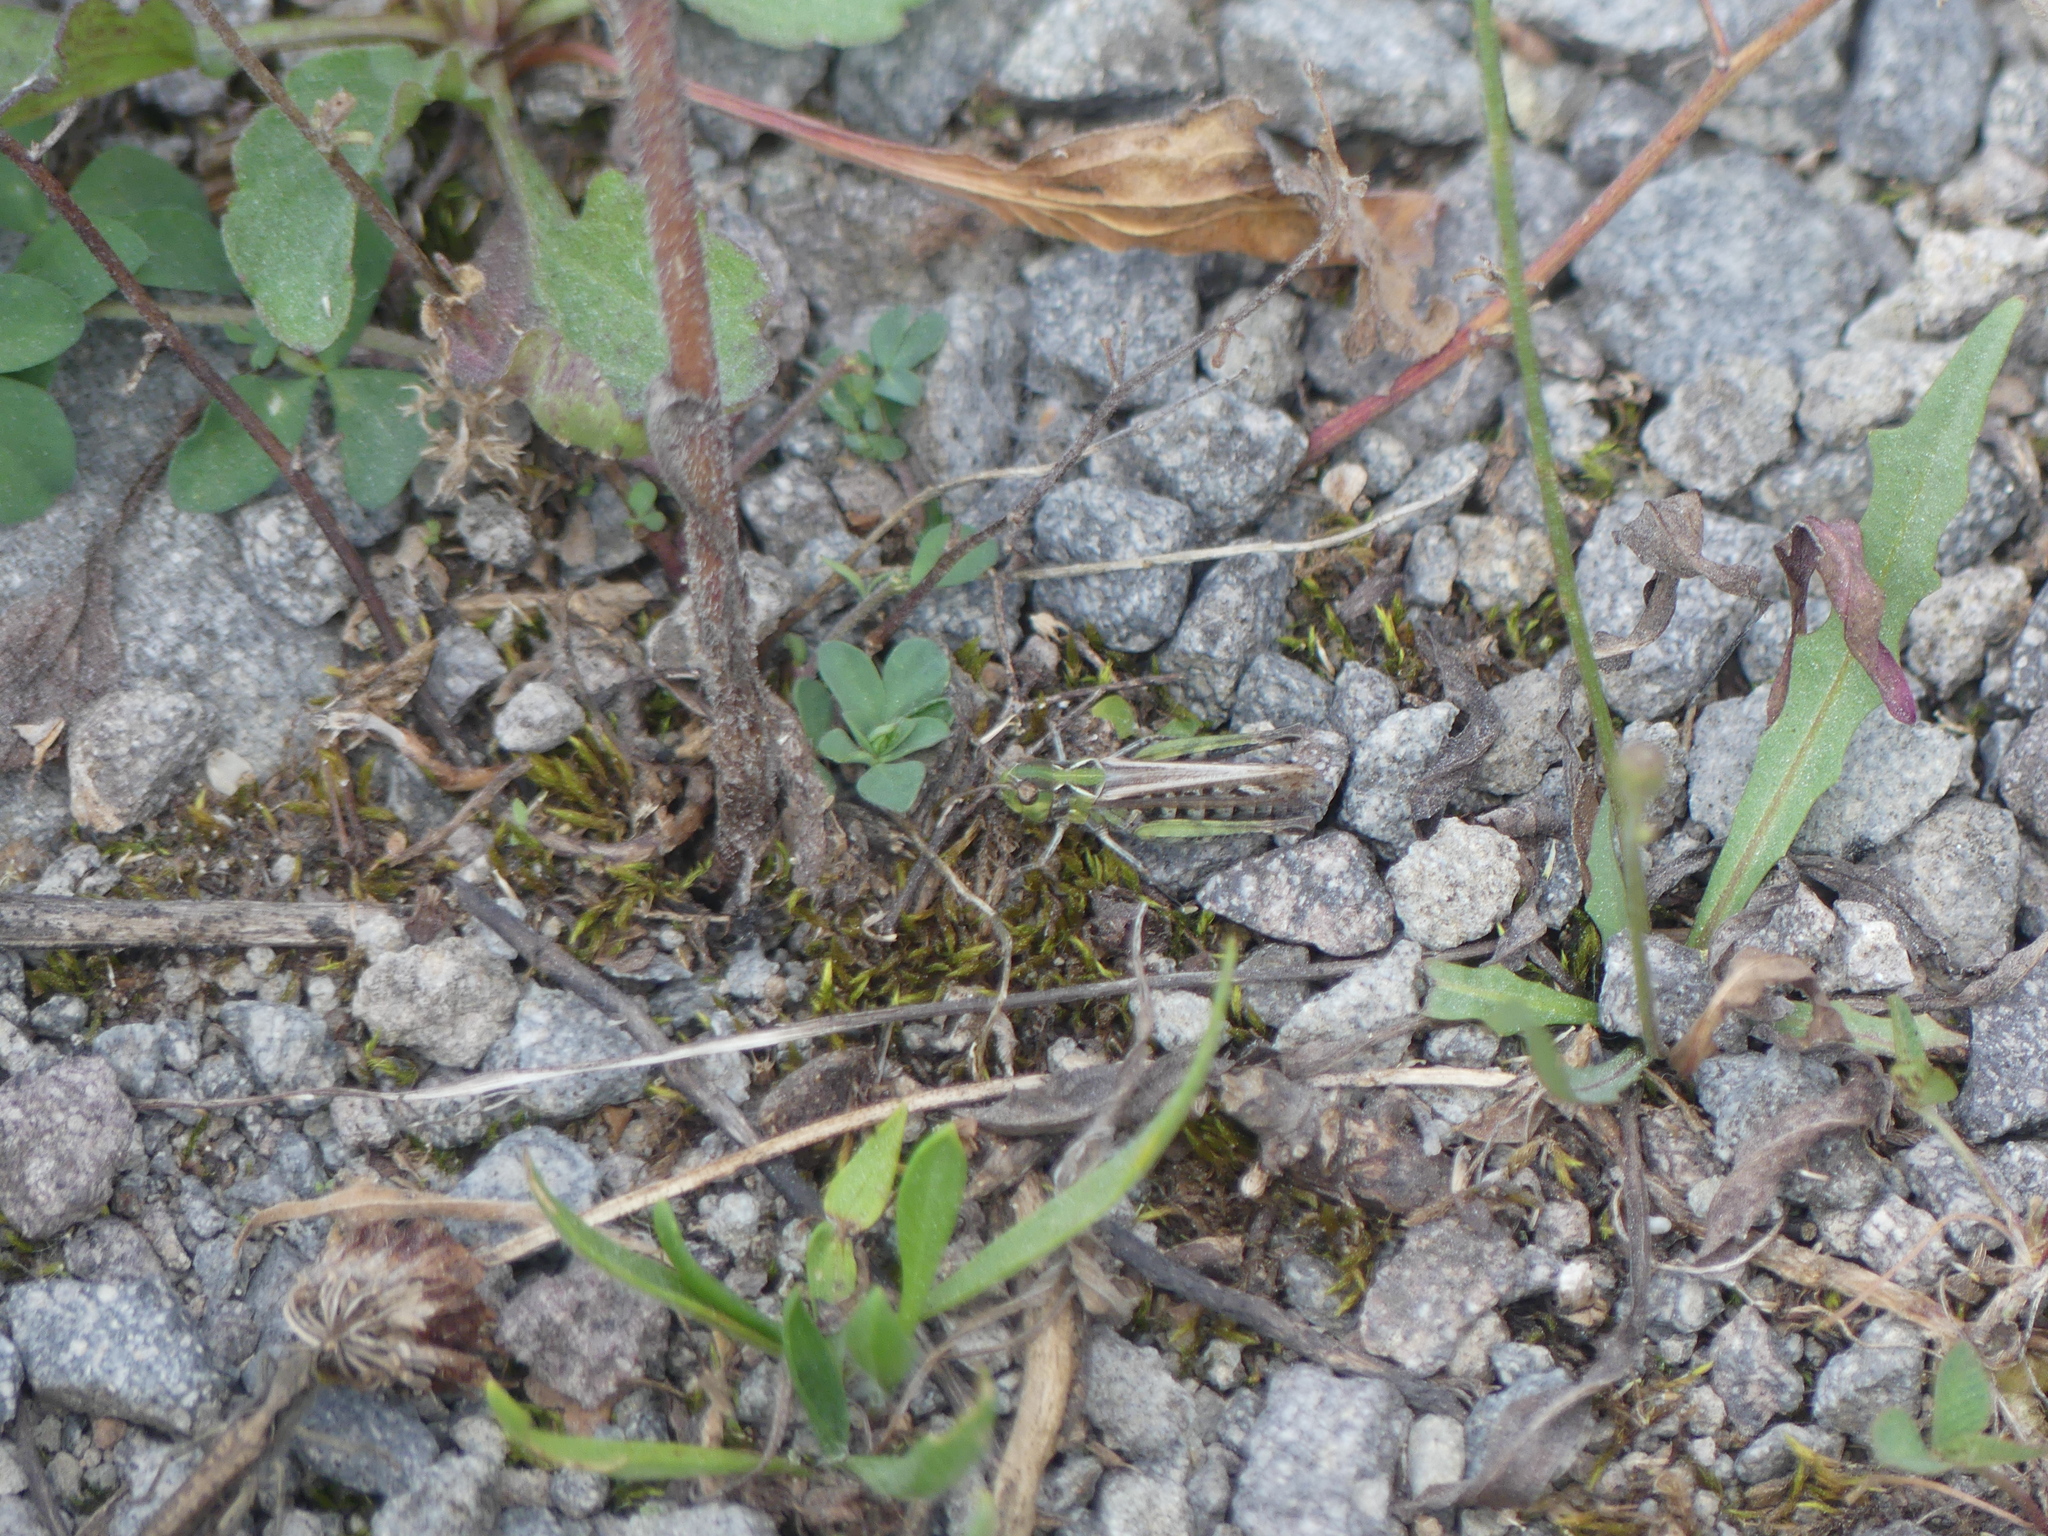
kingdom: Animalia
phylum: Arthropoda
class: Insecta
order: Orthoptera
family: Acrididae
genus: Myrmeleotettix
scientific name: Myrmeleotettix maculatus
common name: Mottled grasshopper
